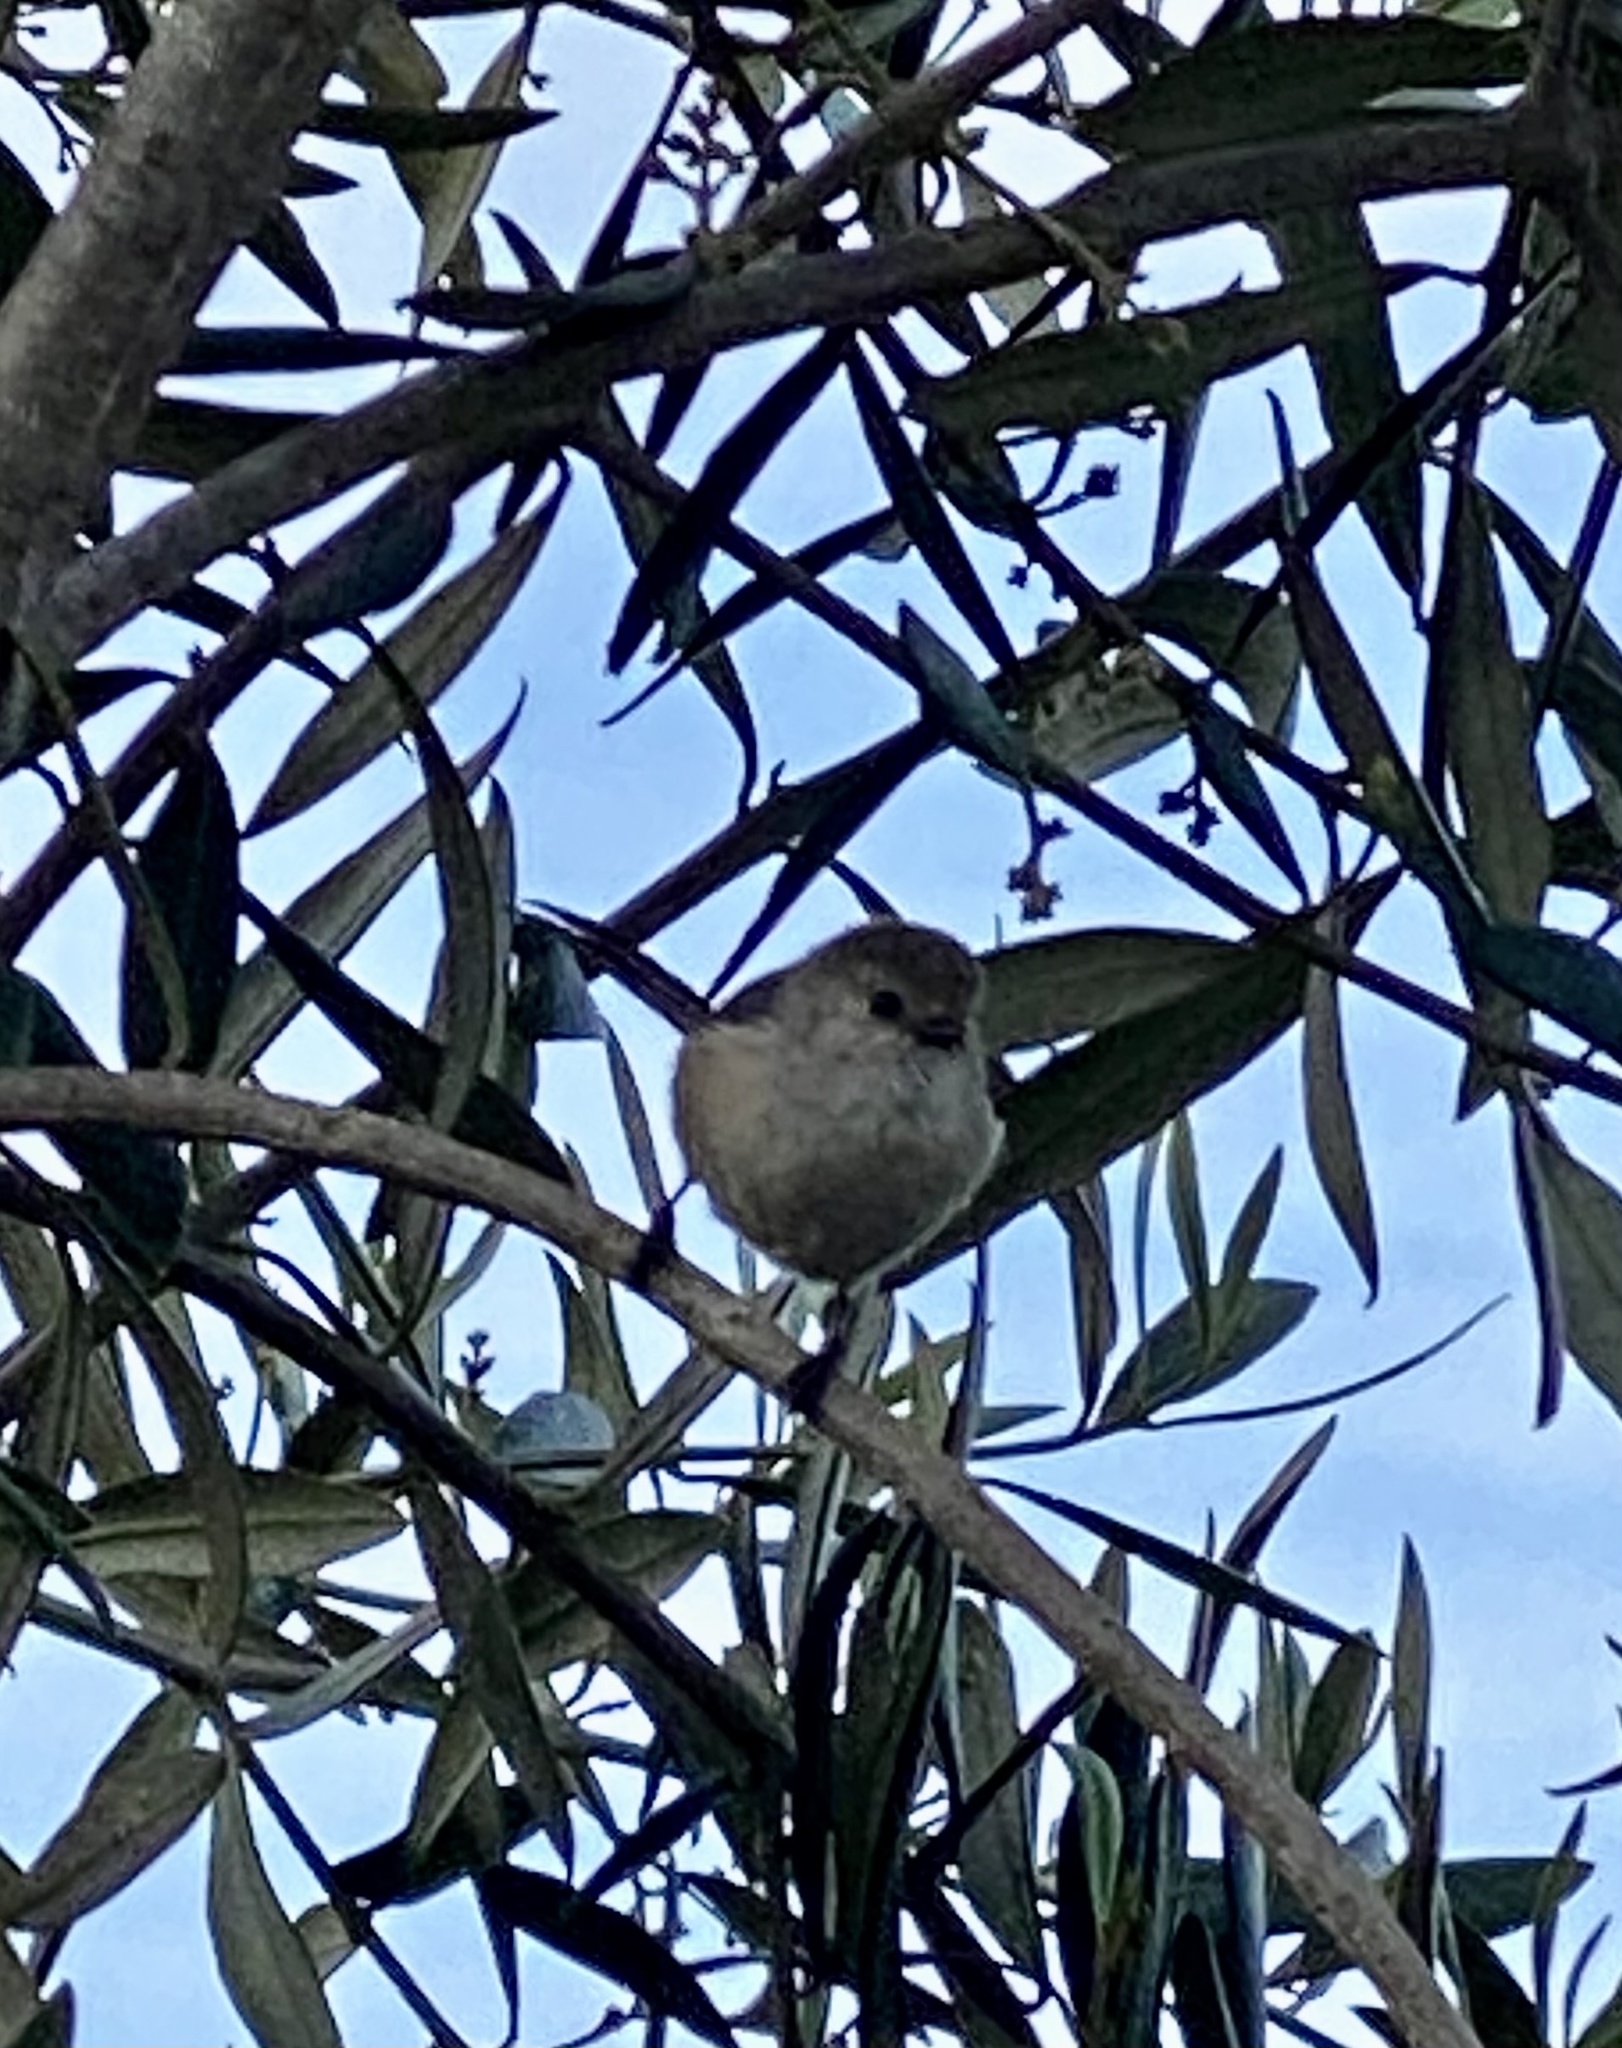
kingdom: Animalia
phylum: Chordata
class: Aves
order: Passeriformes
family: Aegithalidae
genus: Psaltriparus
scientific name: Psaltriparus minimus
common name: American bushtit
